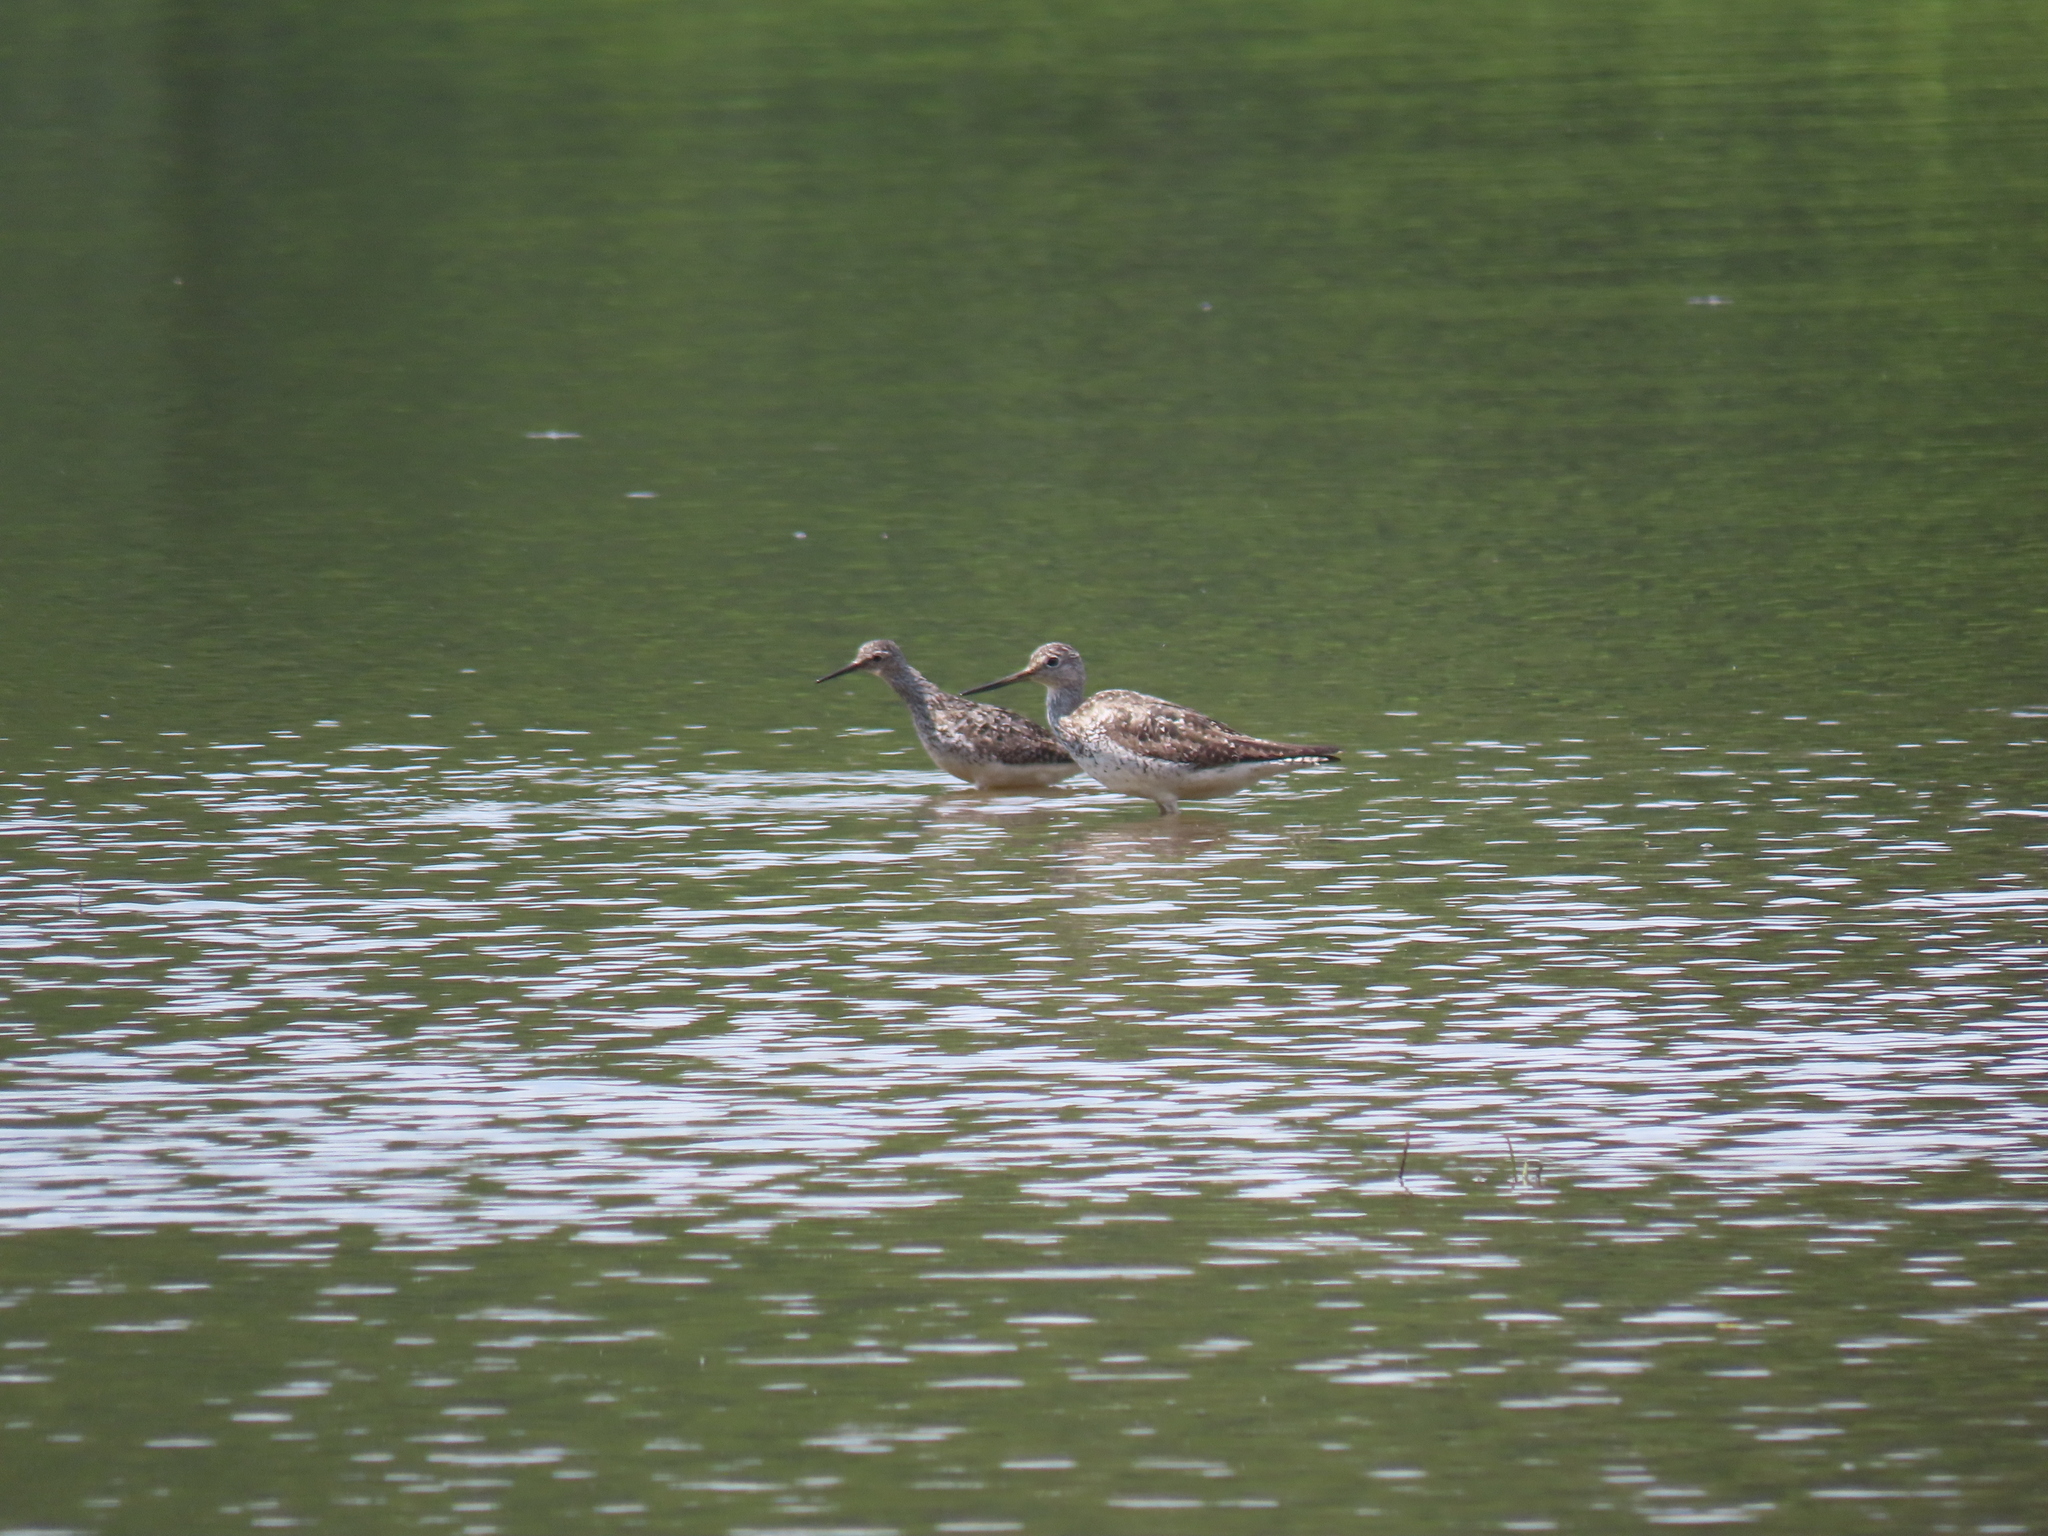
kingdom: Animalia
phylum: Chordata
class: Aves
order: Charadriiformes
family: Scolopacidae
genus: Tringa
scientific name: Tringa melanoleuca
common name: Greater yellowlegs
